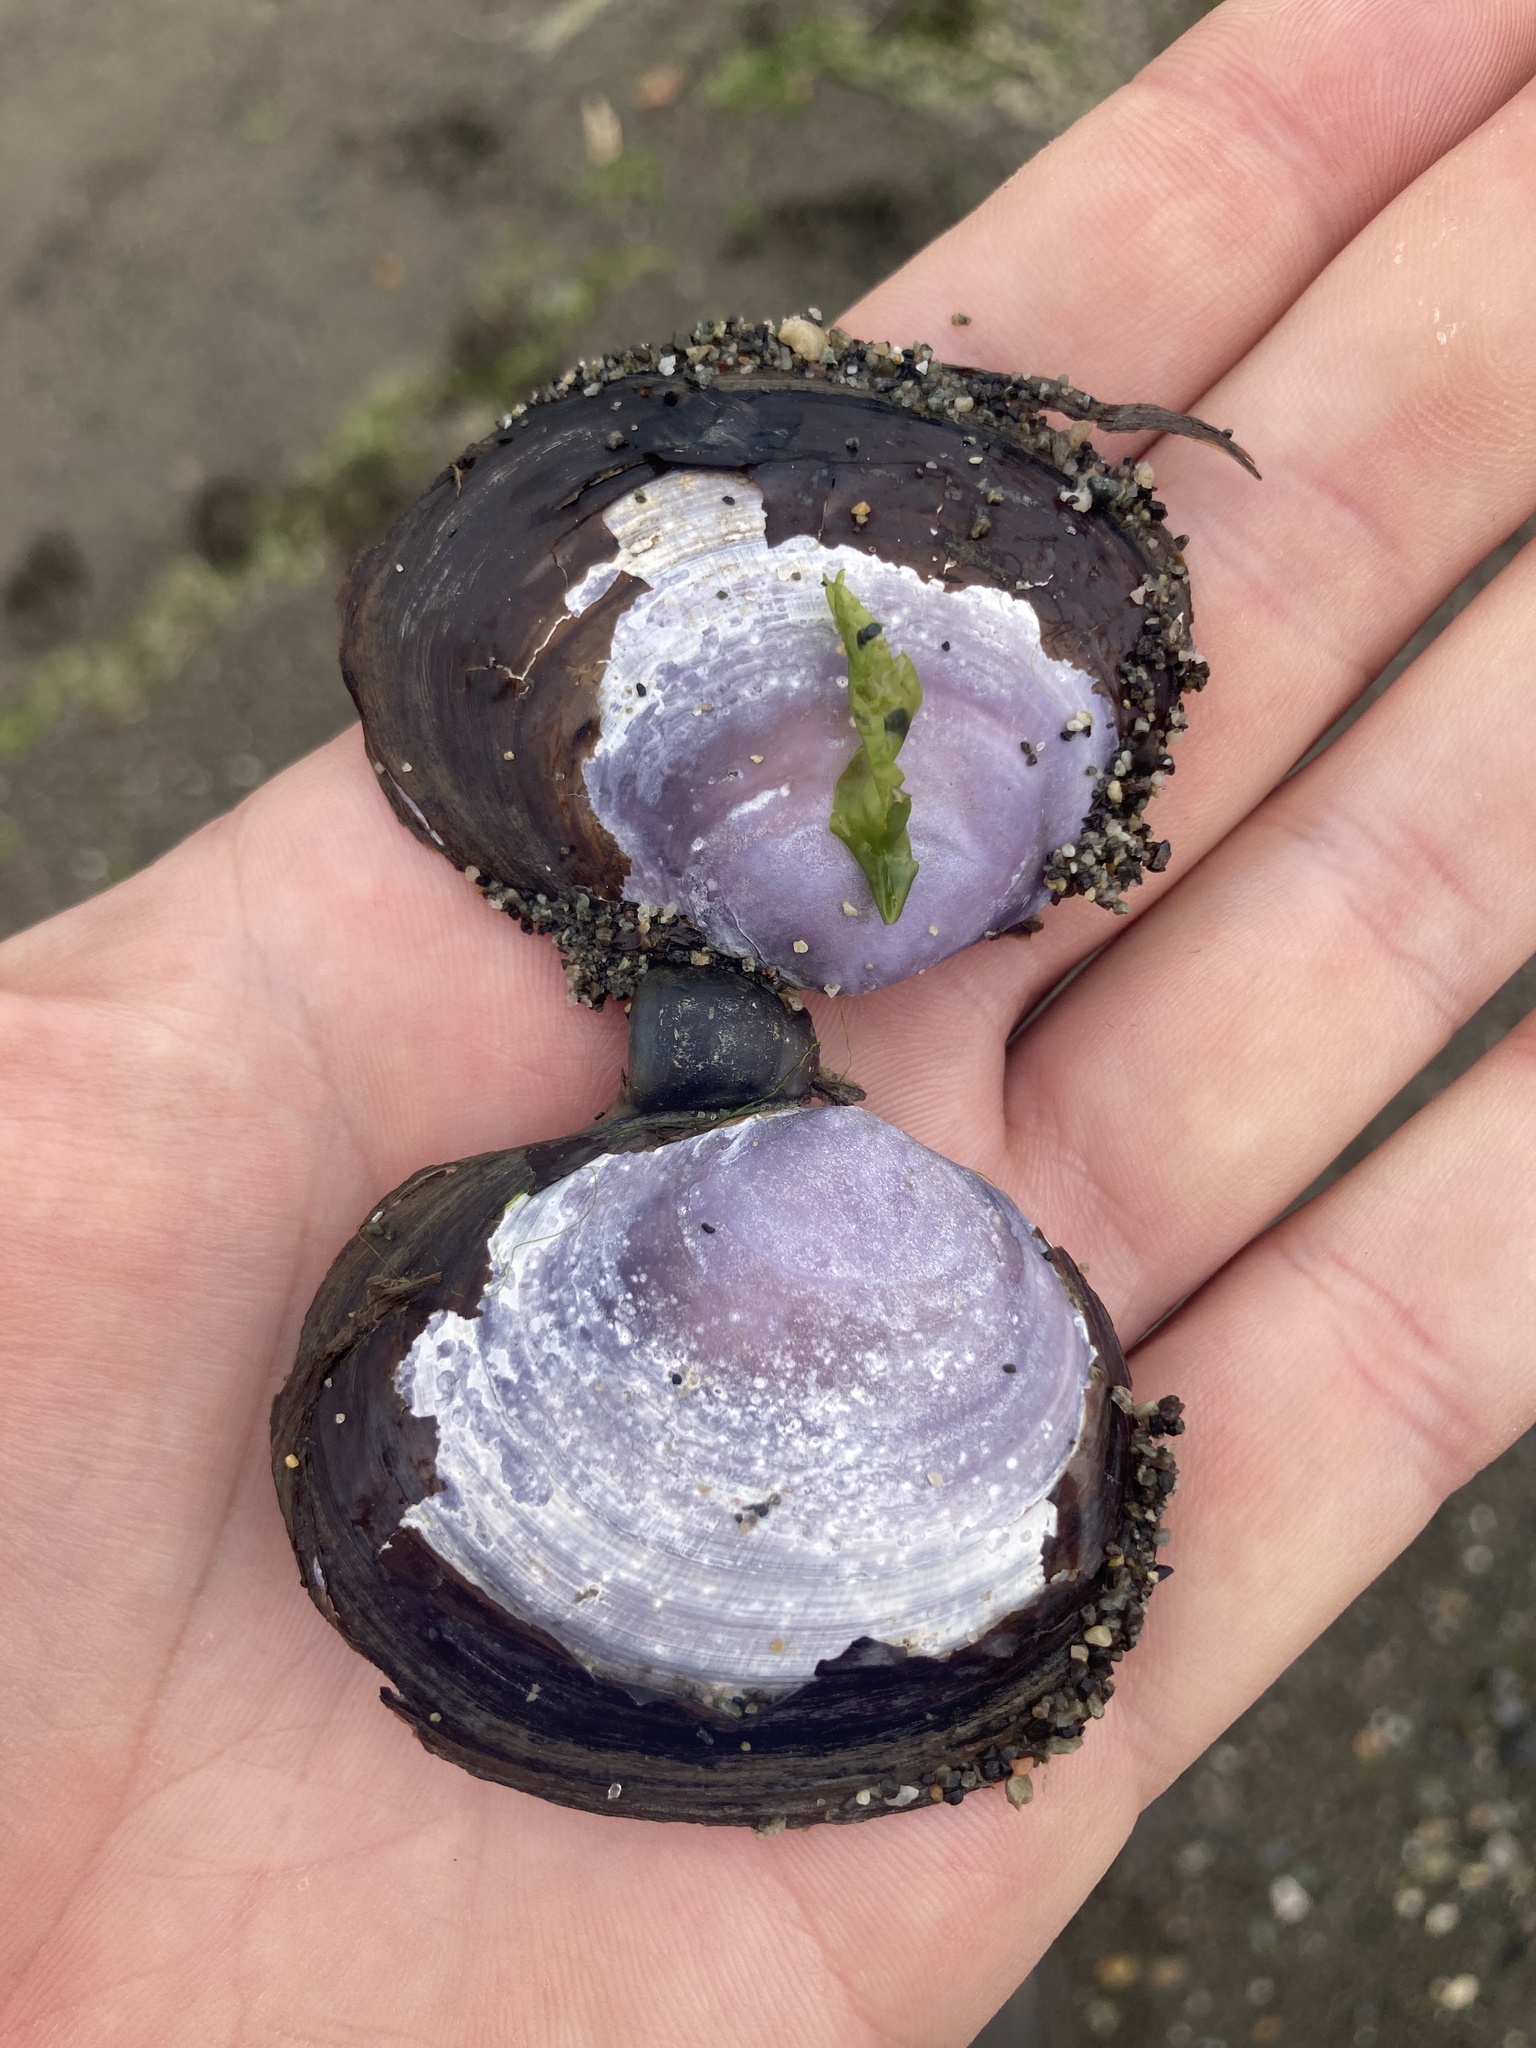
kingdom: Animalia
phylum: Mollusca
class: Bivalvia
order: Cardiida
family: Psammobiidae
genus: Nuttallia
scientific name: Nuttallia obscurata
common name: Purple mahogany-clam
